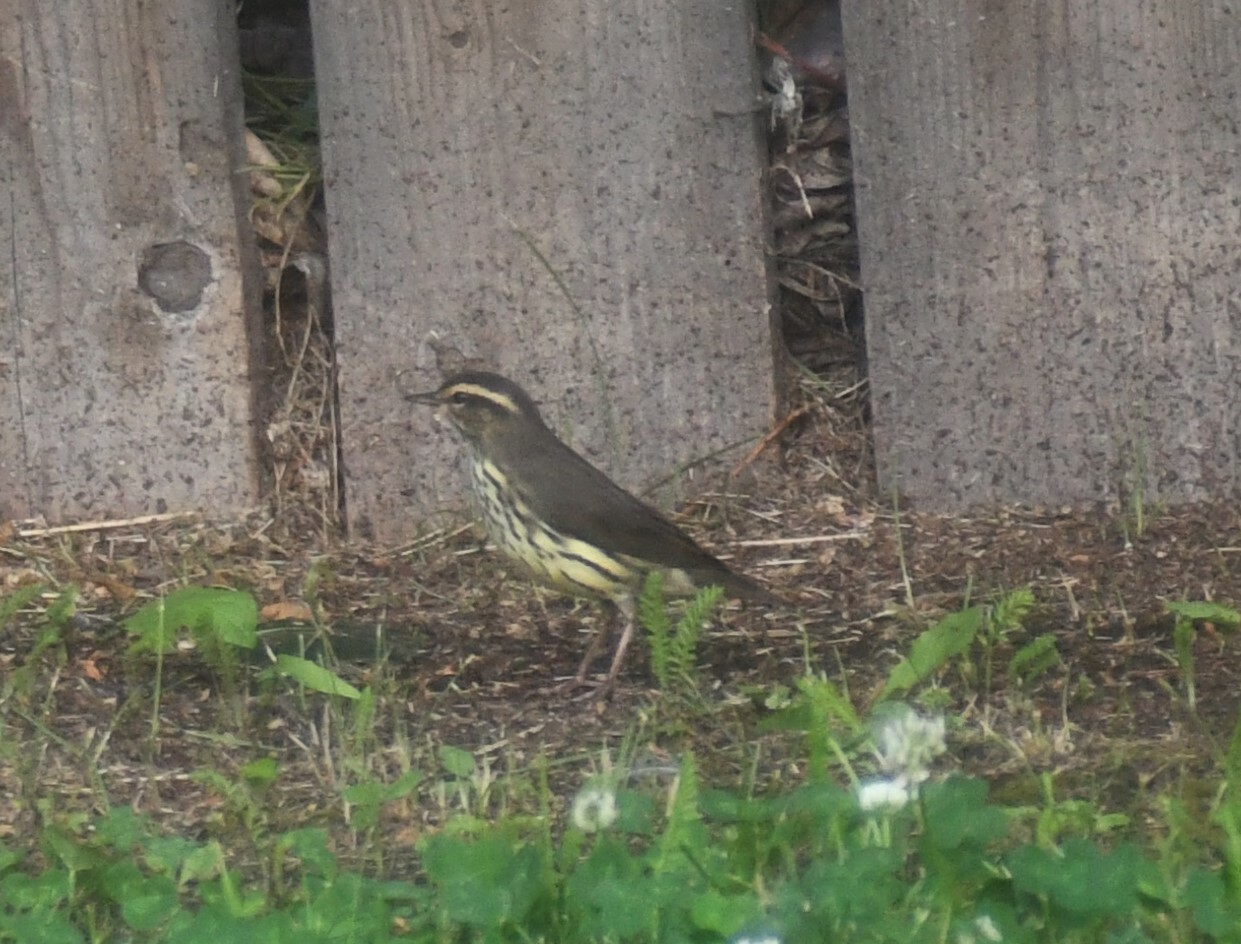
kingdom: Animalia
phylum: Chordata
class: Aves
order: Passeriformes
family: Parulidae
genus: Parkesia
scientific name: Parkesia noveboracensis
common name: Northern waterthrush
